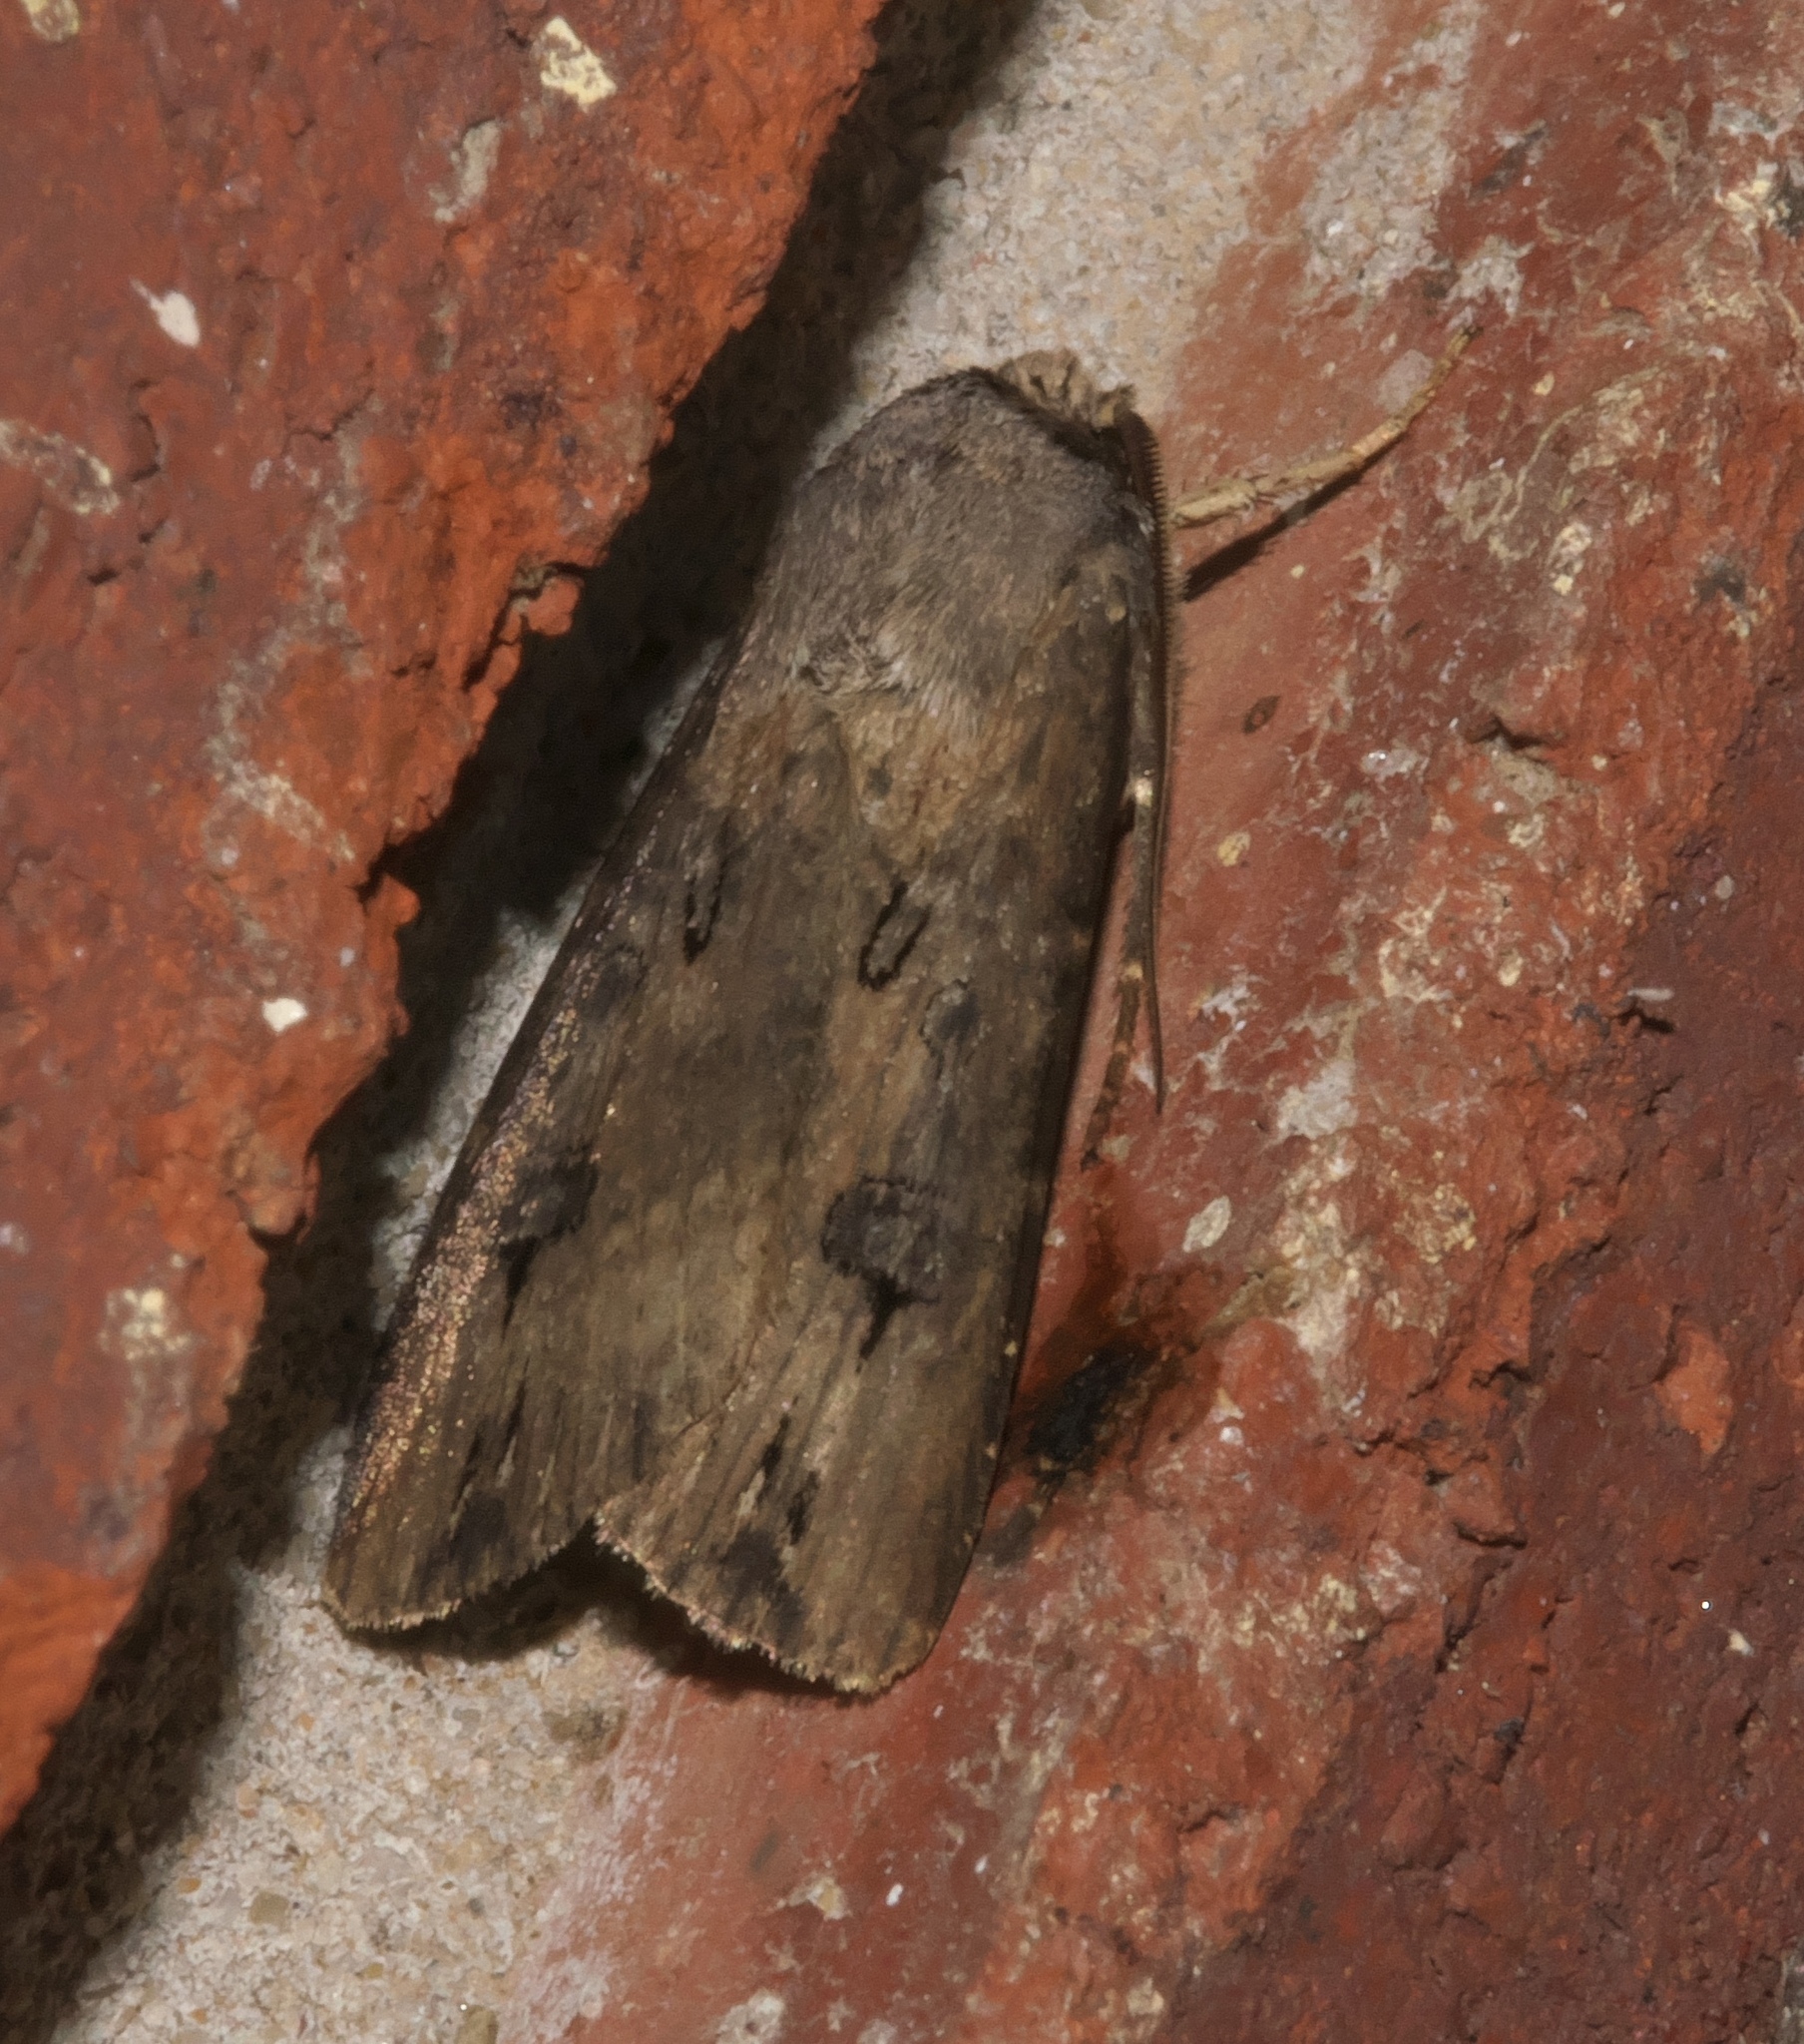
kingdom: Animalia
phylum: Arthropoda
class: Insecta
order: Lepidoptera
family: Noctuidae
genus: Agrotis
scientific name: Agrotis ipsilon
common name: Dark sword-grass
